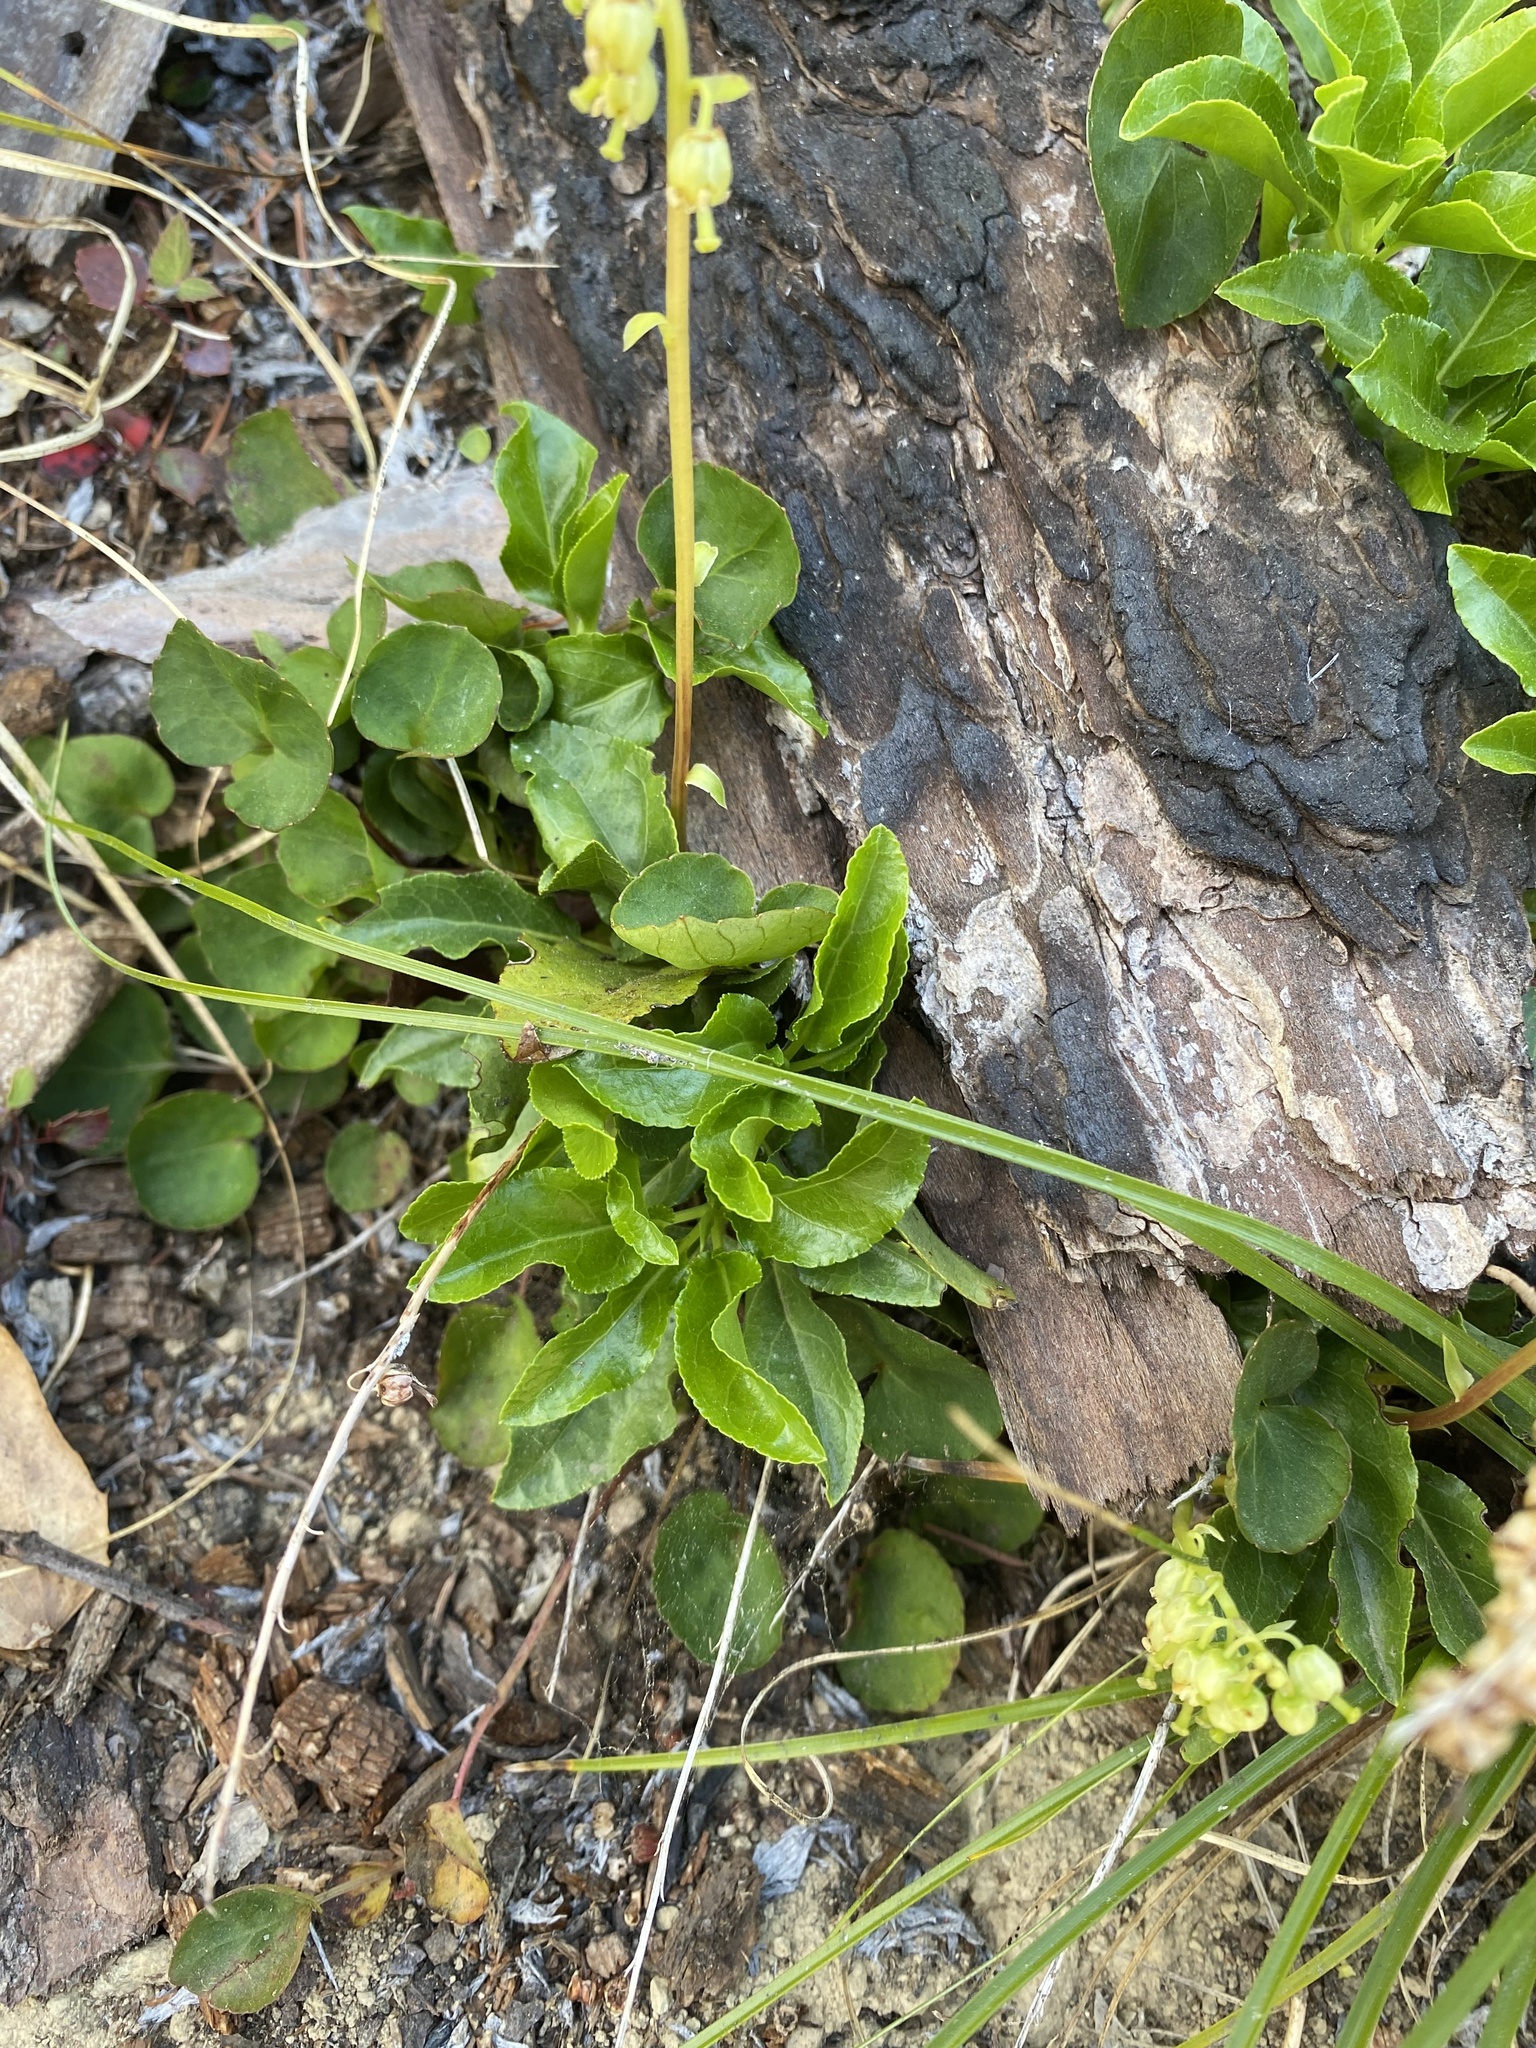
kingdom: Plantae
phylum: Tracheophyta
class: Magnoliopsida
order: Ericales
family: Ericaceae
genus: Orthilia
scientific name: Orthilia secunda
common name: One-sided orthilia
